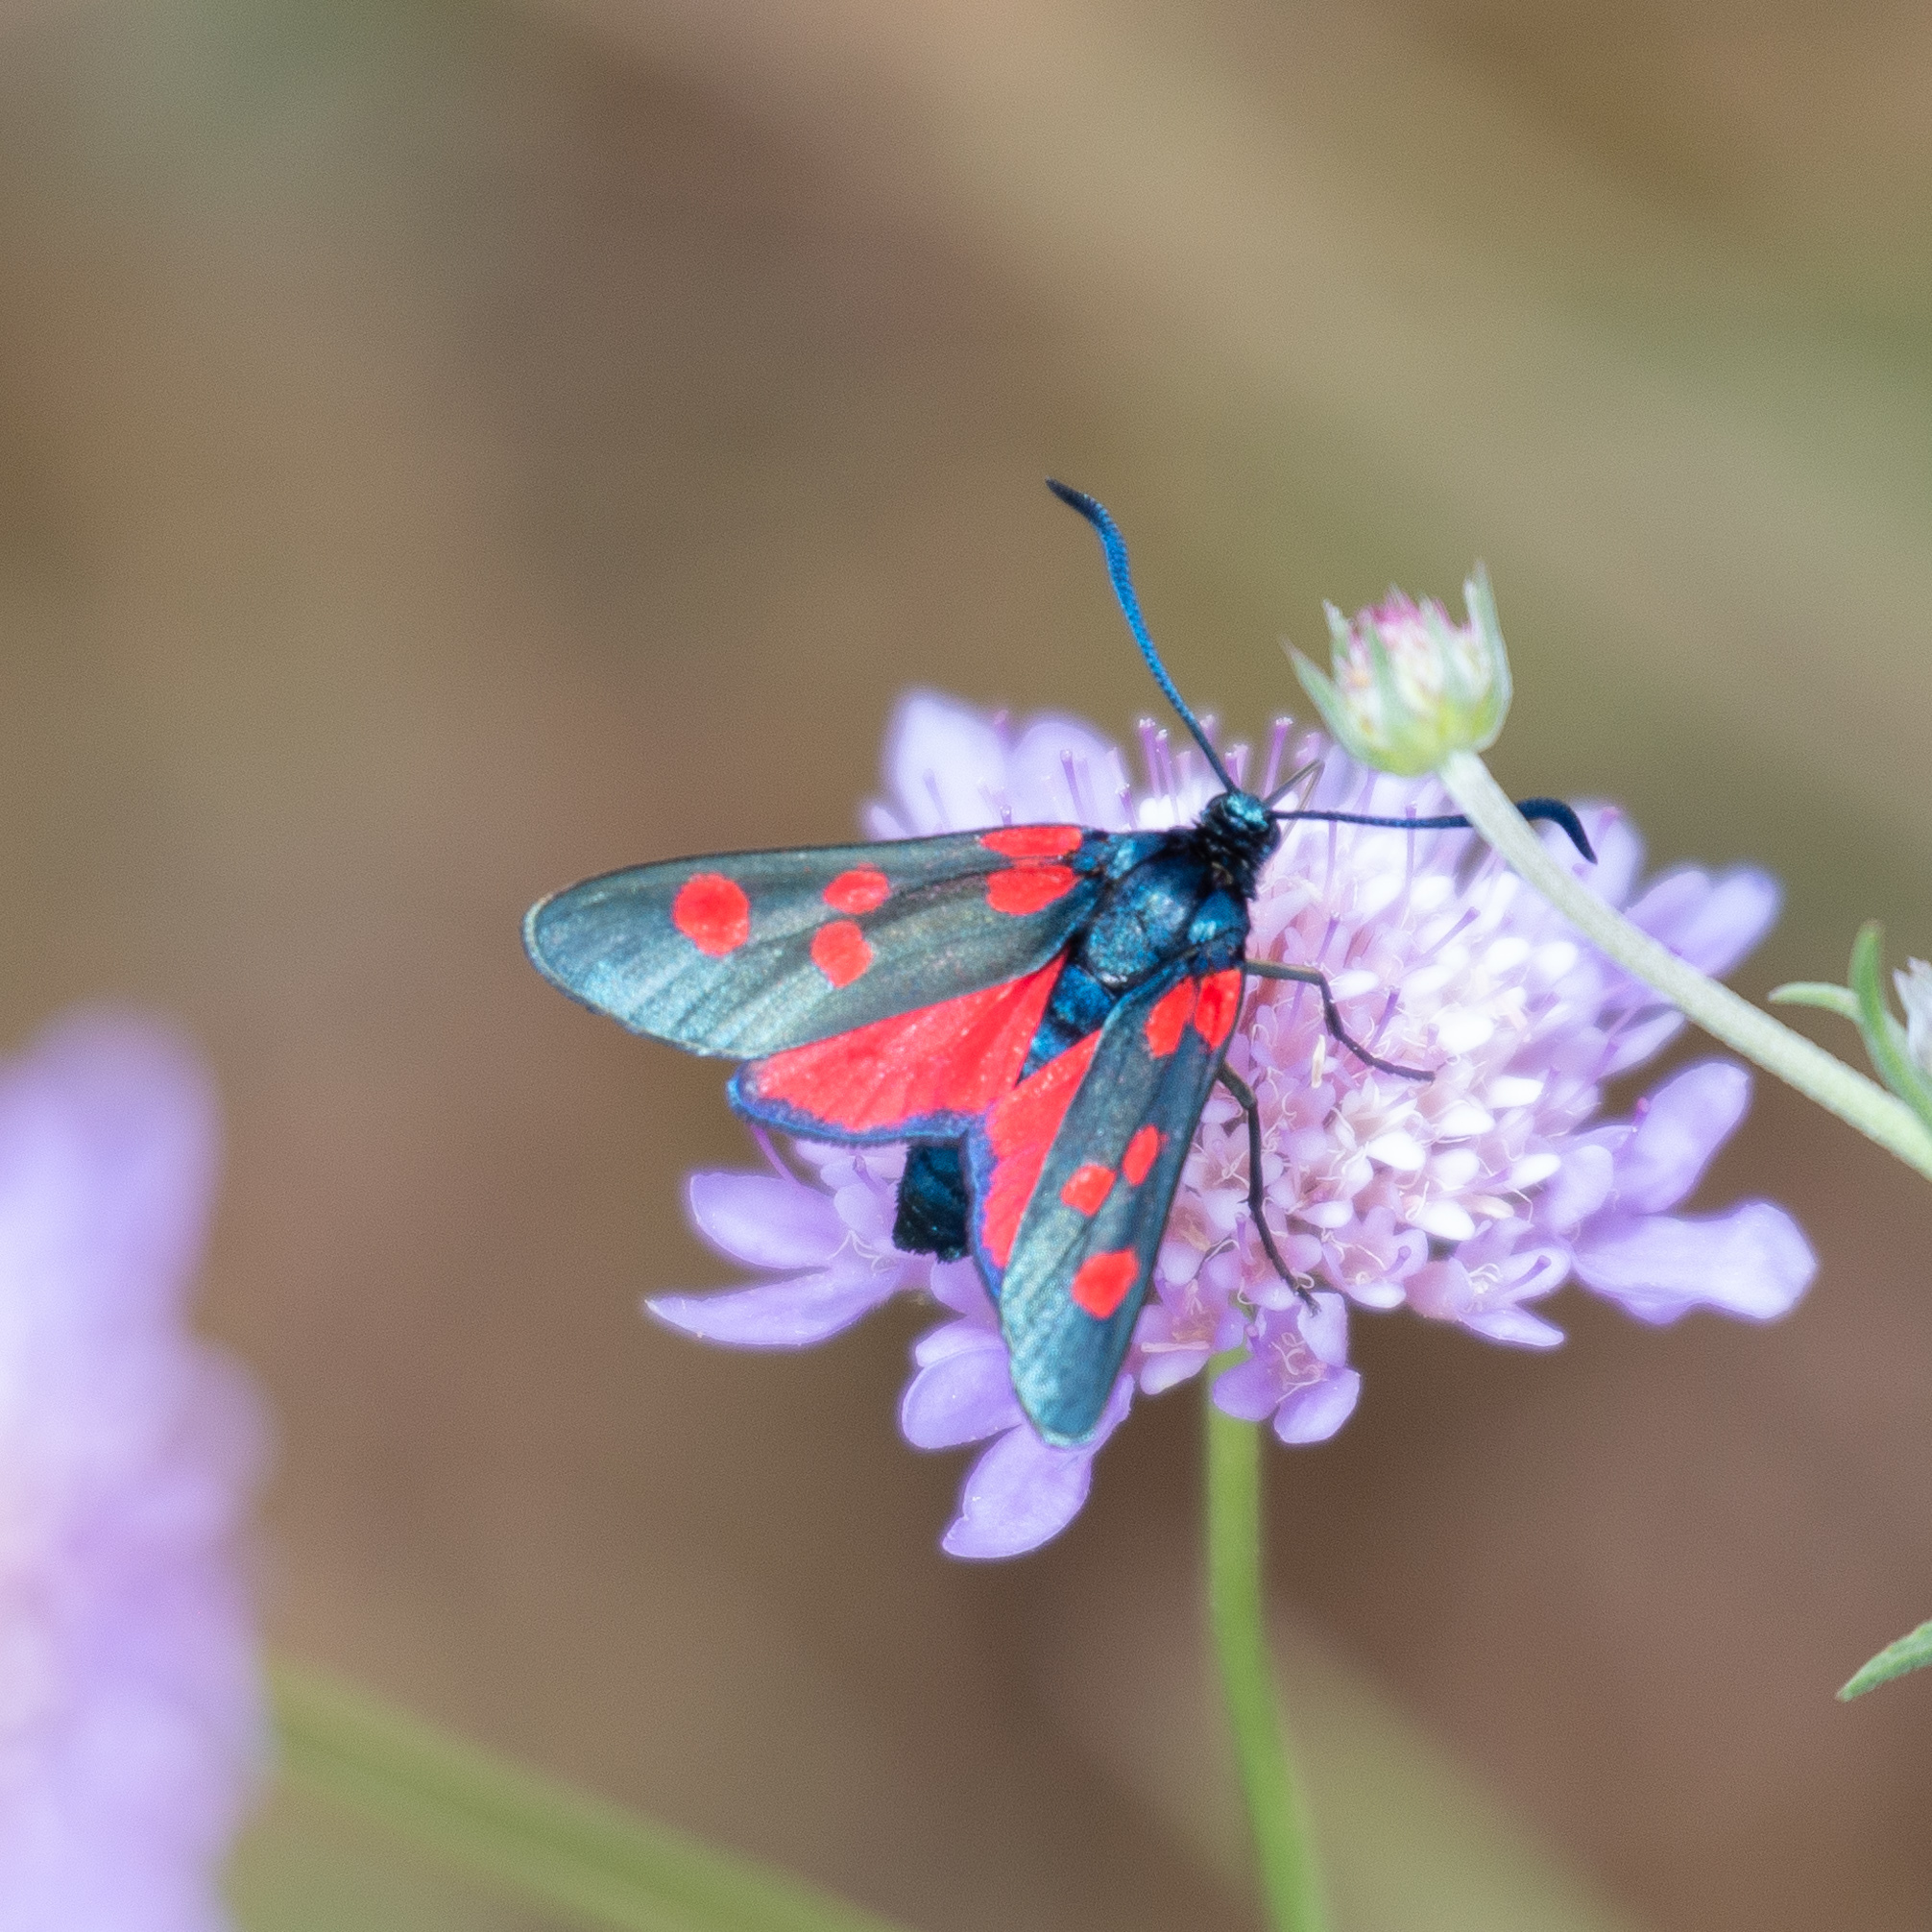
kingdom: Animalia
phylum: Arthropoda
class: Insecta
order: Lepidoptera
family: Zygaenidae
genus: Zygaena
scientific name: Zygaena lonicerae
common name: Narrow-bordered five-spot burnet
